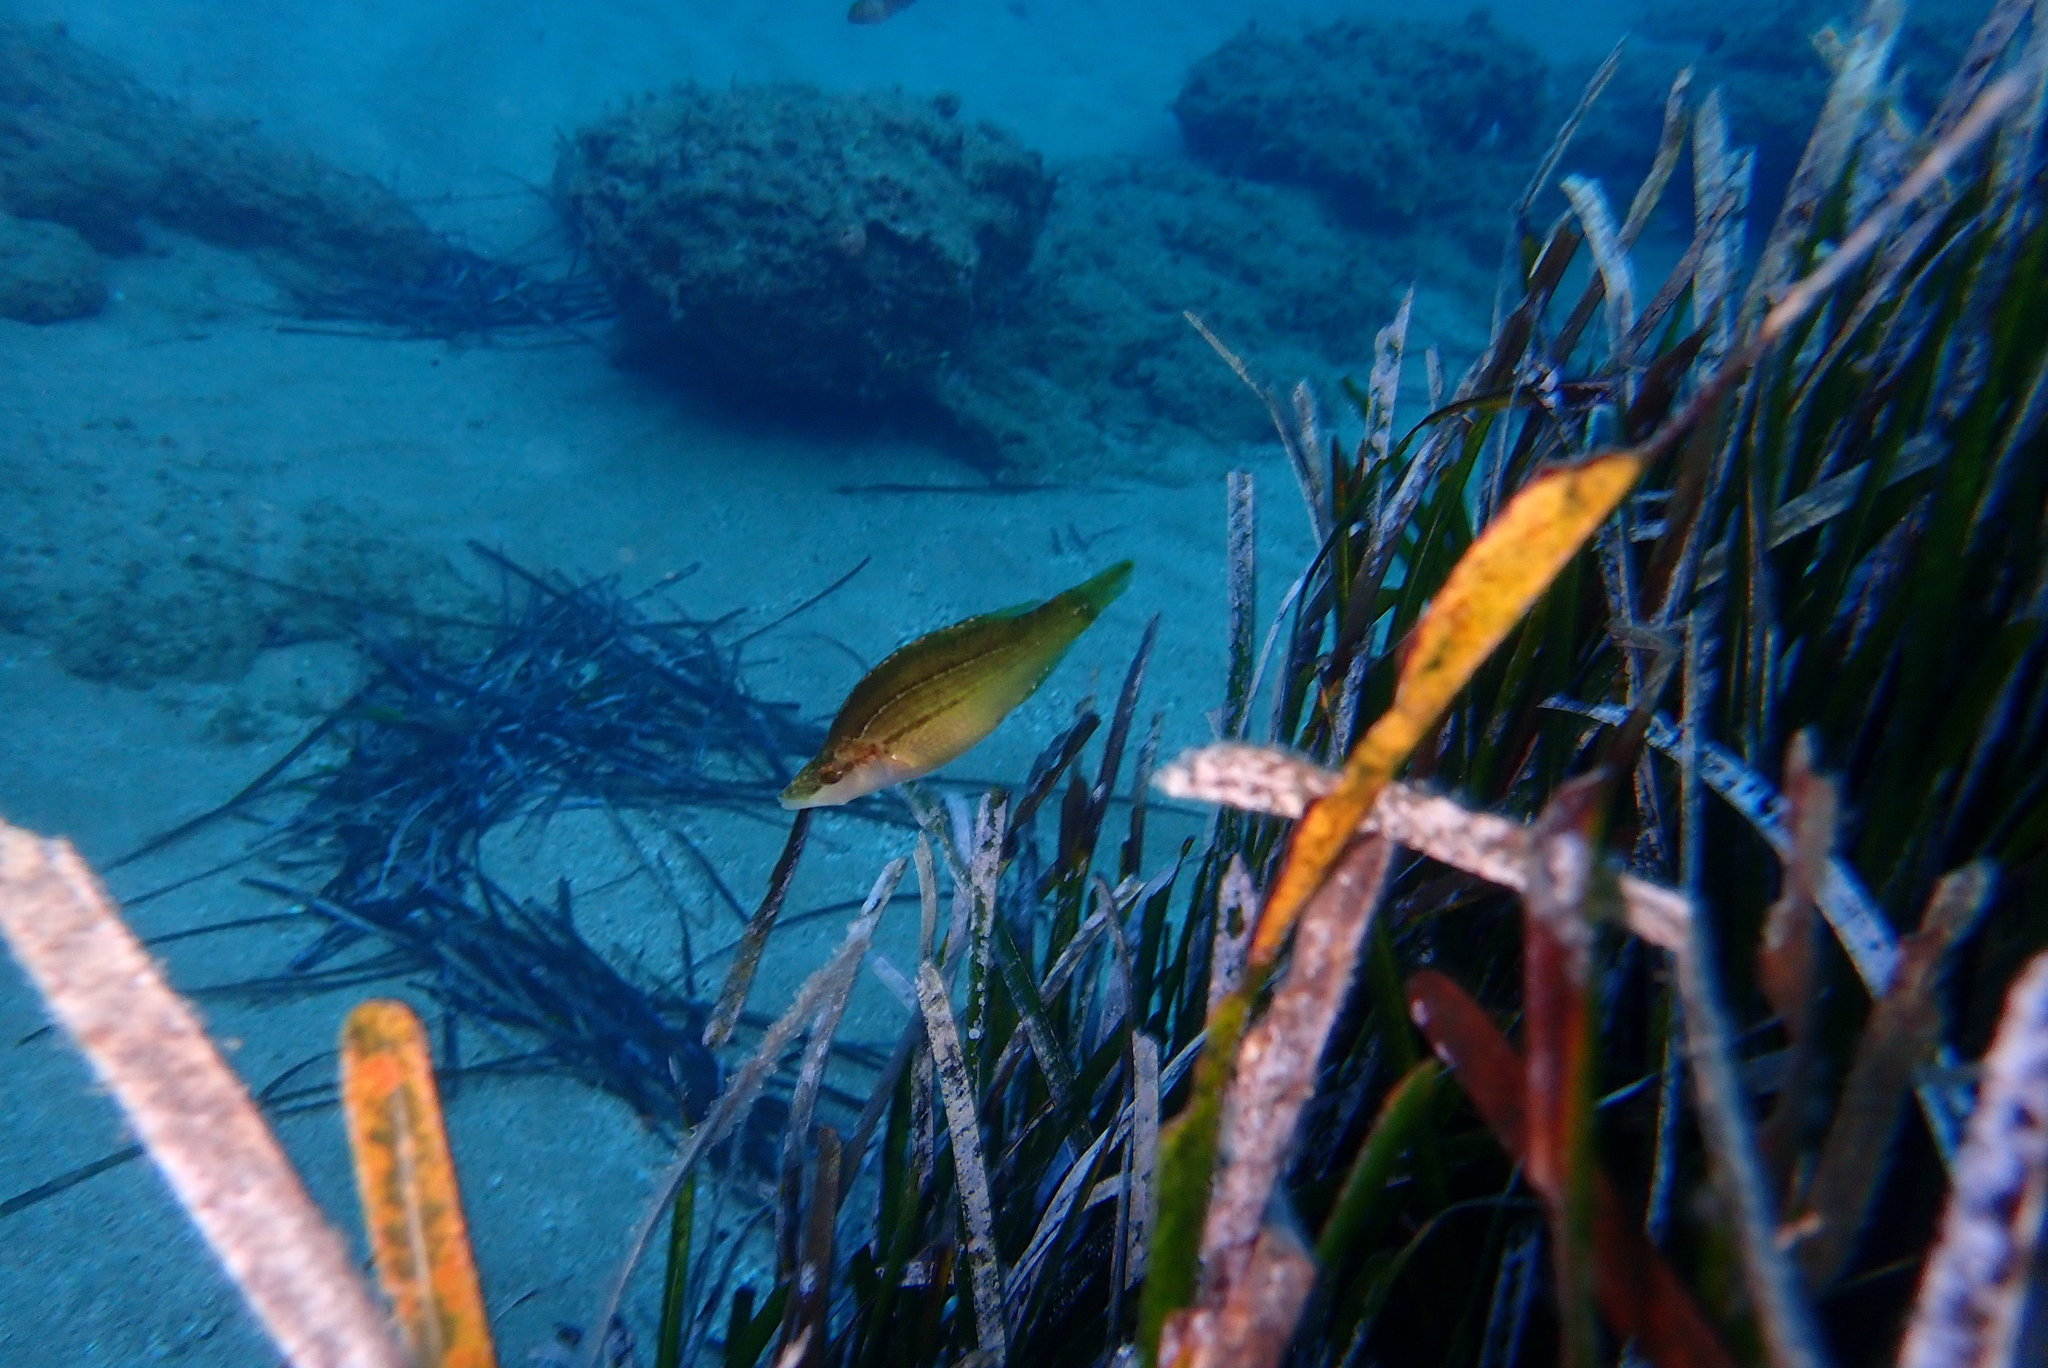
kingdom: Animalia
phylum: Chordata
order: Perciformes
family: Labridae
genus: Symphodus
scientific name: Symphodus rostratus
